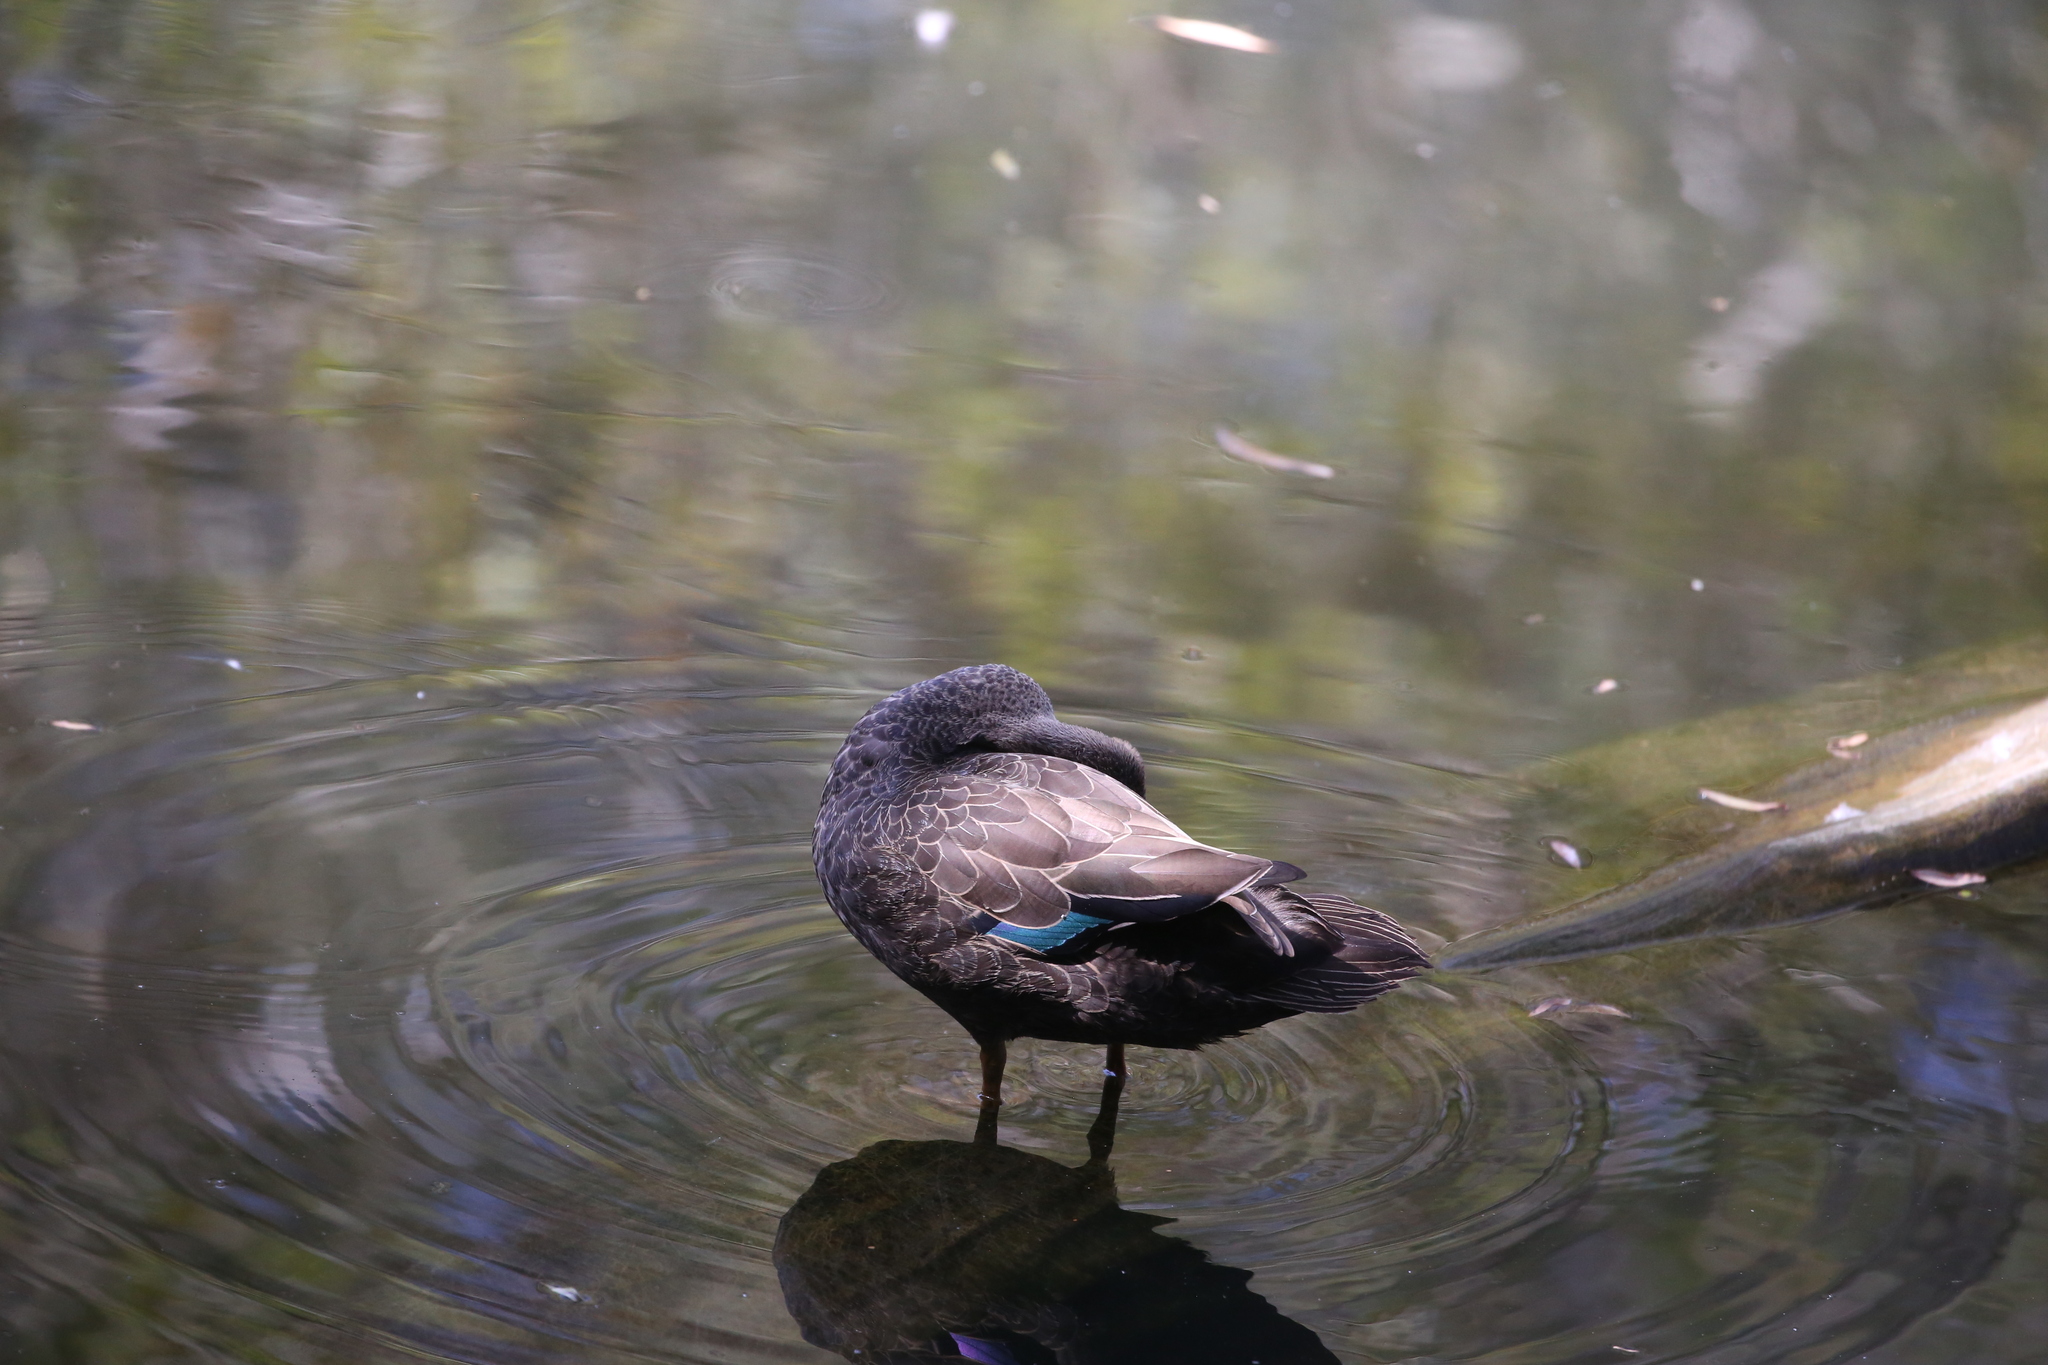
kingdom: Animalia
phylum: Chordata
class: Aves
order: Anseriformes
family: Anatidae
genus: Anas
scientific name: Anas superciliosa
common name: Pacific black duck
